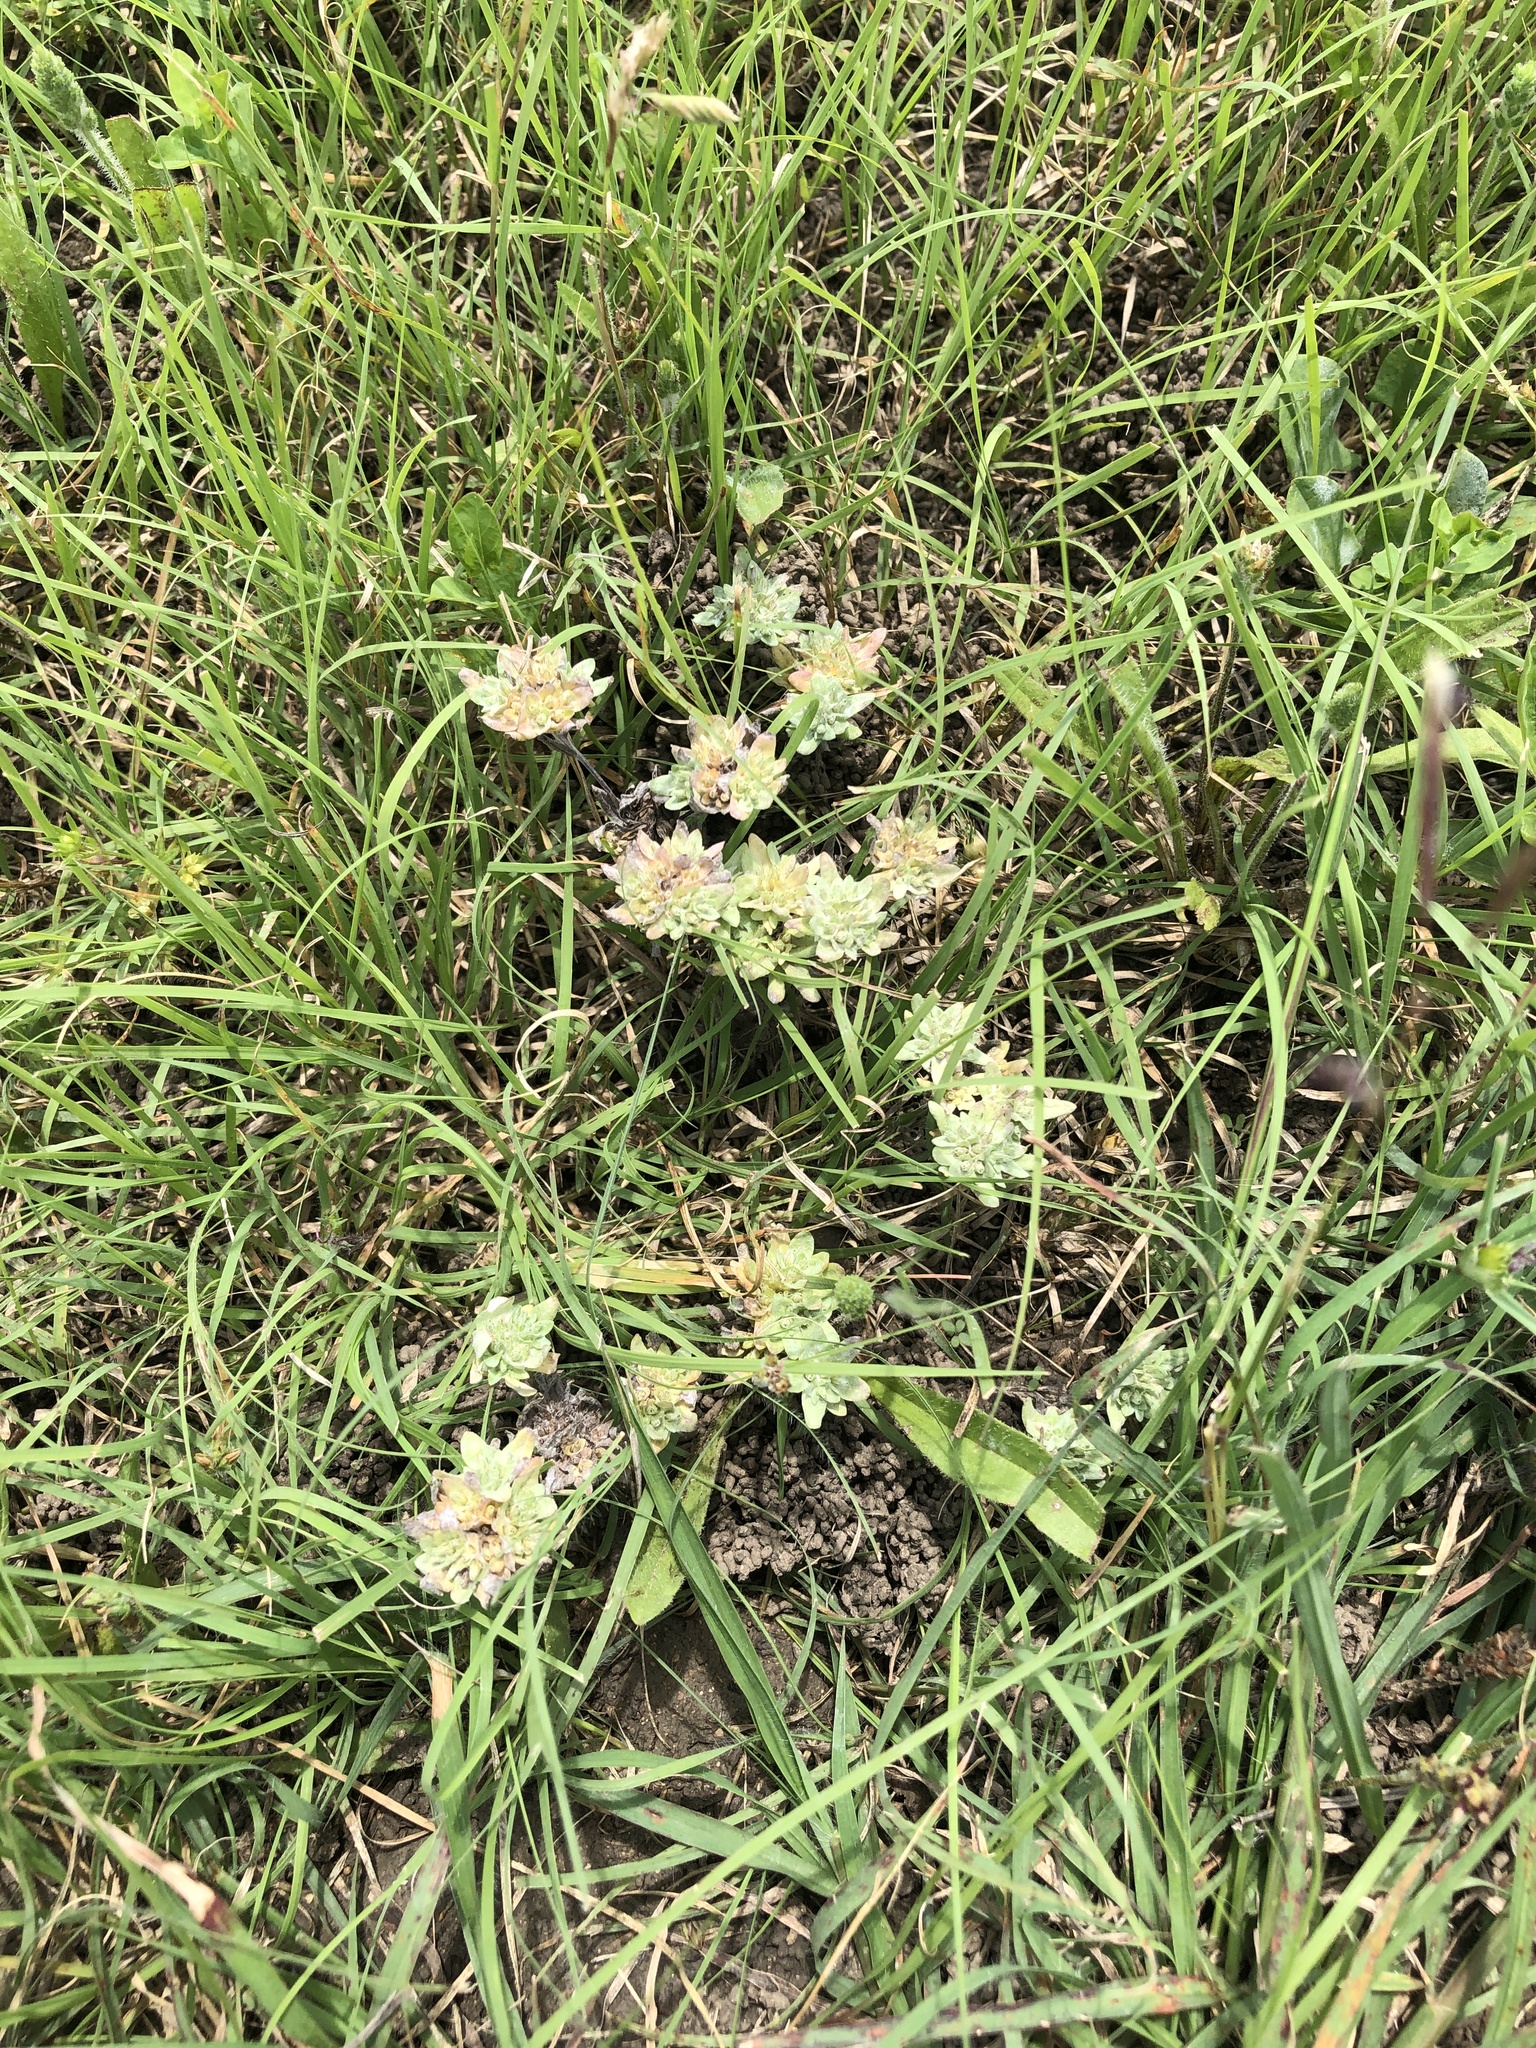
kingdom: Plantae
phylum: Tracheophyta
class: Magnoliopsida
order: Asterales
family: Asteraceae
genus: Diaperia
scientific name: Diaperia prolifera
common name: Big-head rabbit-tobacco
